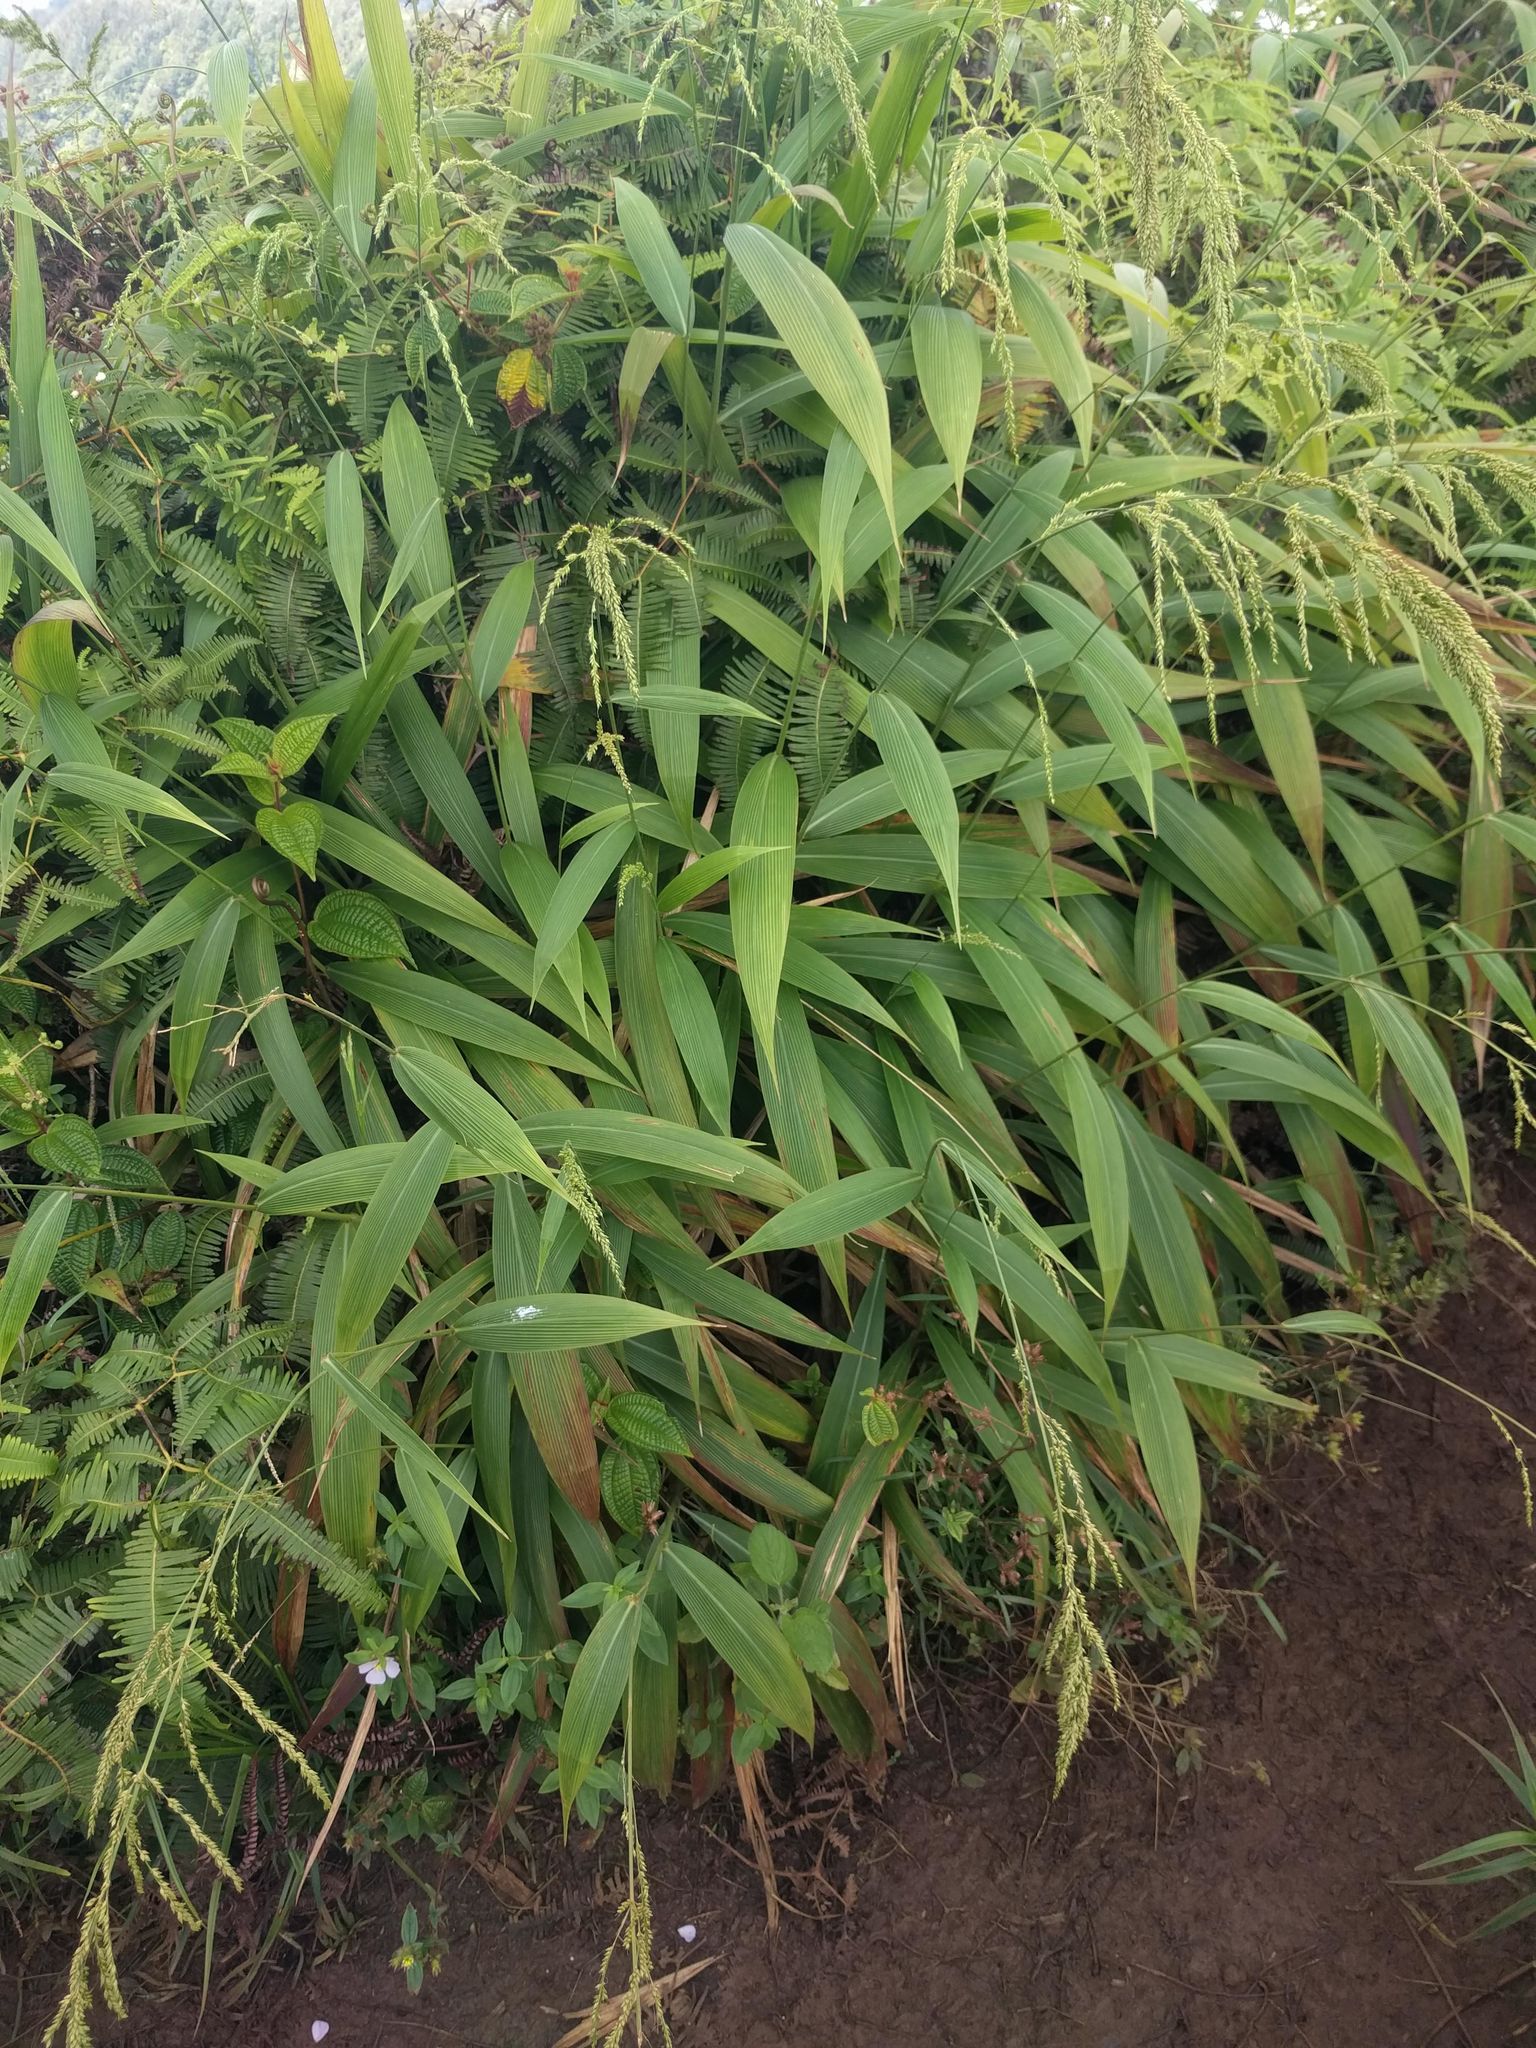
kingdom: Plantae
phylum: Tracheophyta
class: Liliopsida
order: Poales
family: Poaceae
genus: Setaria
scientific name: Setaria palmifolia
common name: Broadleaved bristlegrass
